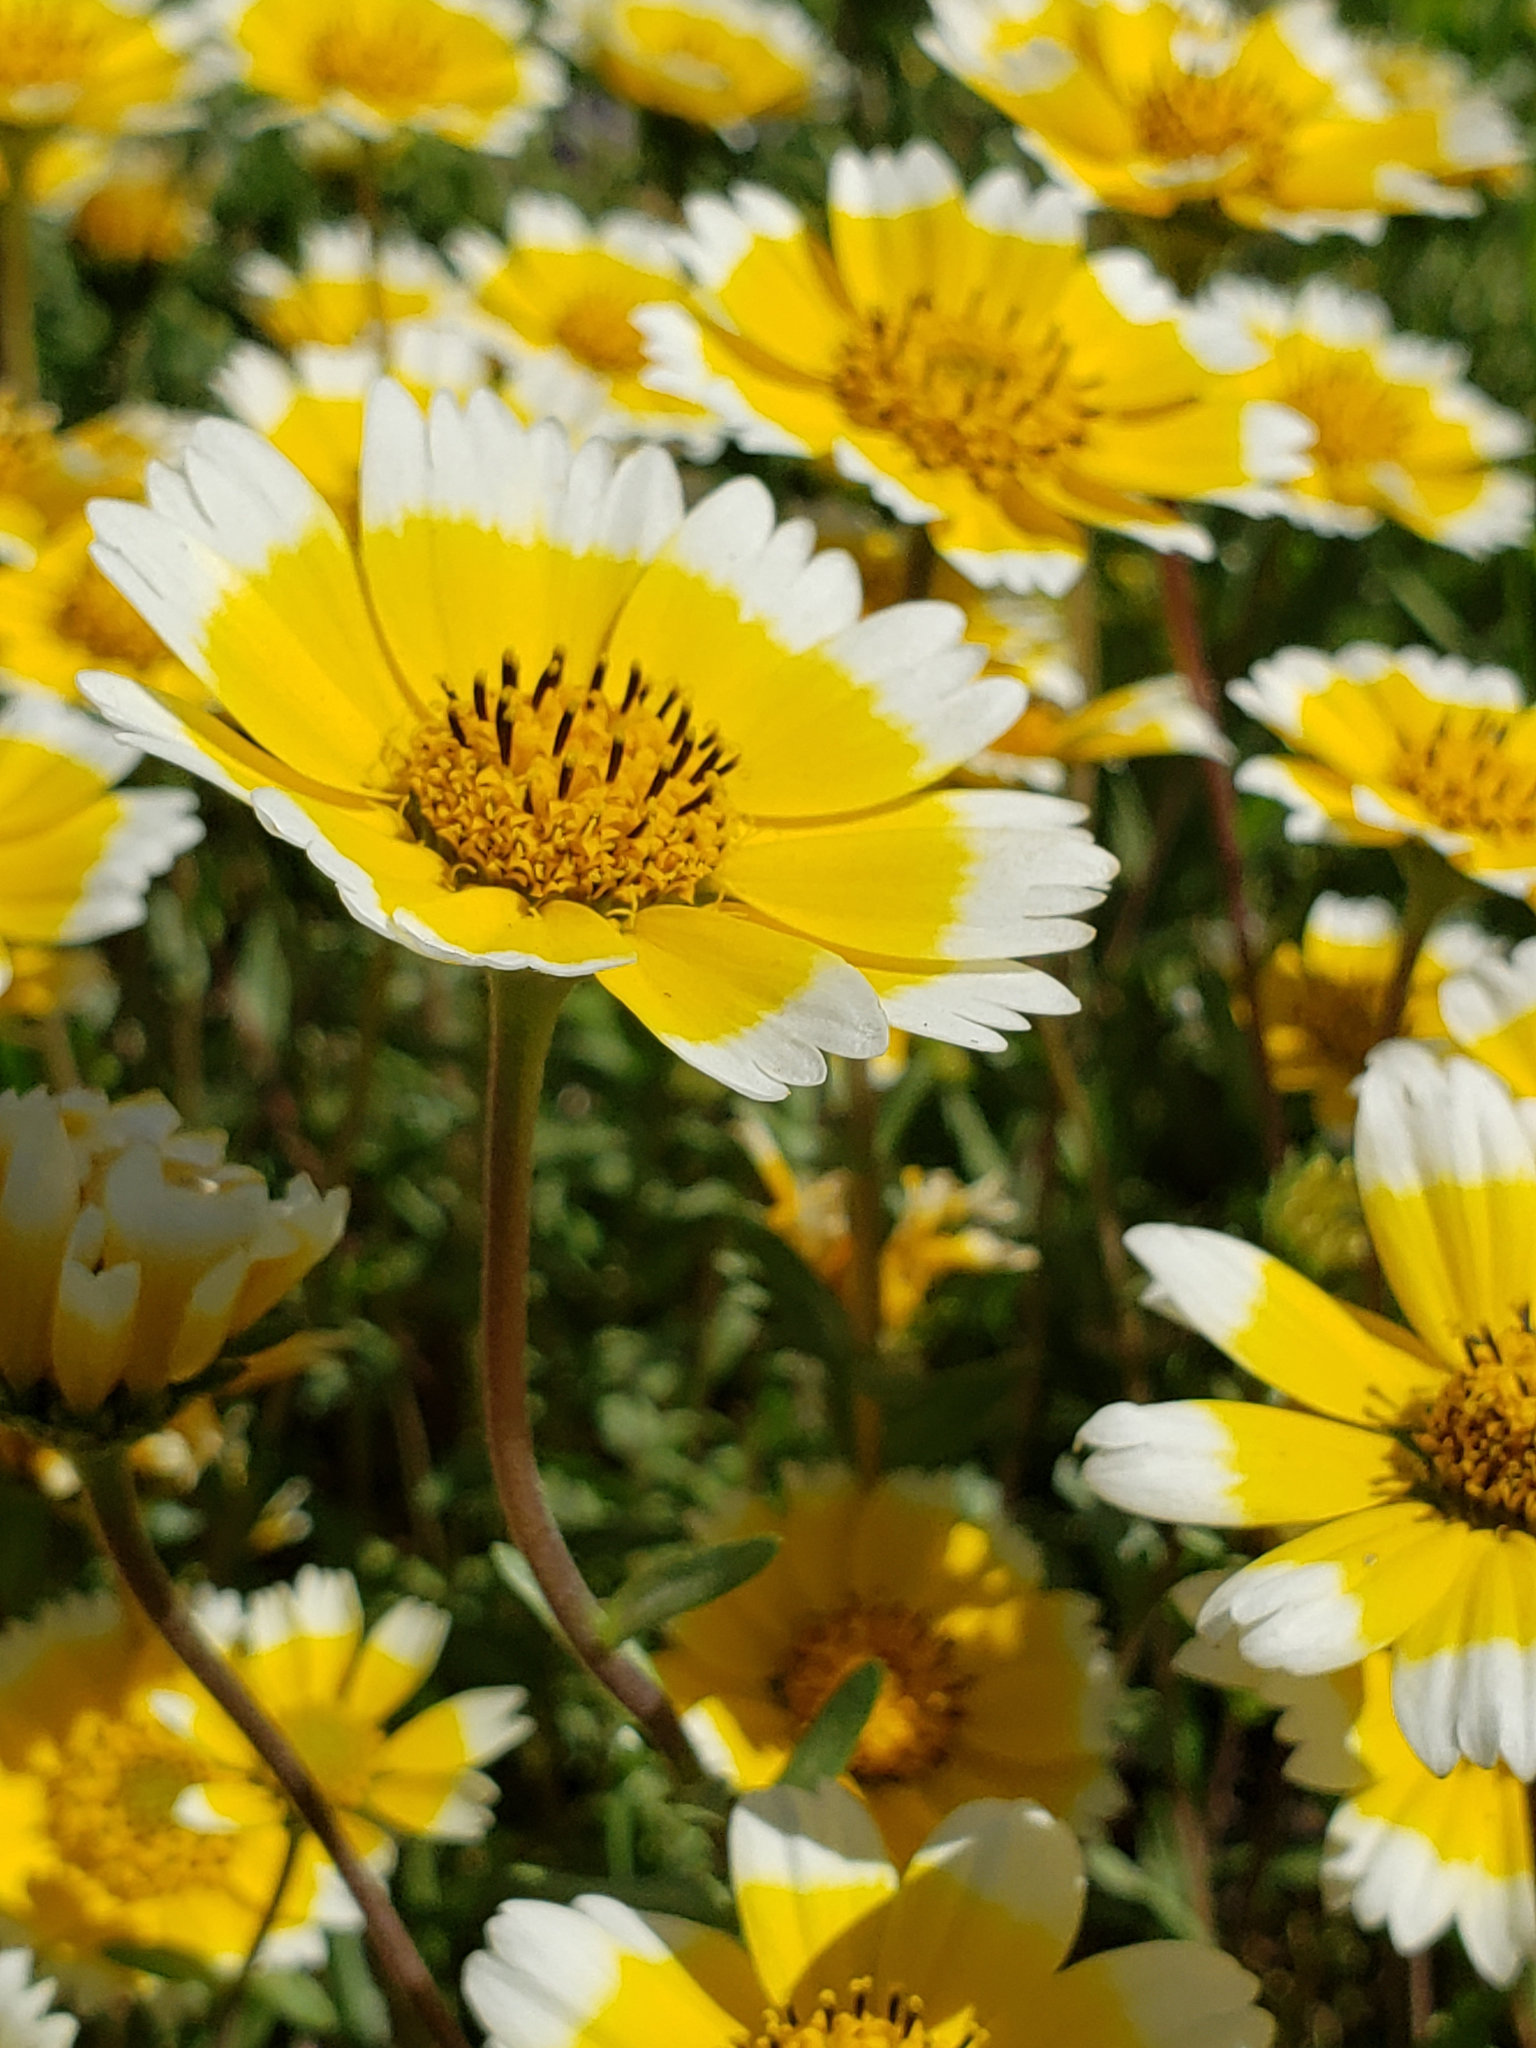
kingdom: Plantae
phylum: Tracheophyta
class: Magnoliopsida
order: Asterales
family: Asteraceae
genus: Layia
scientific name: Layia chrysanthemoides
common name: Smooth layia
